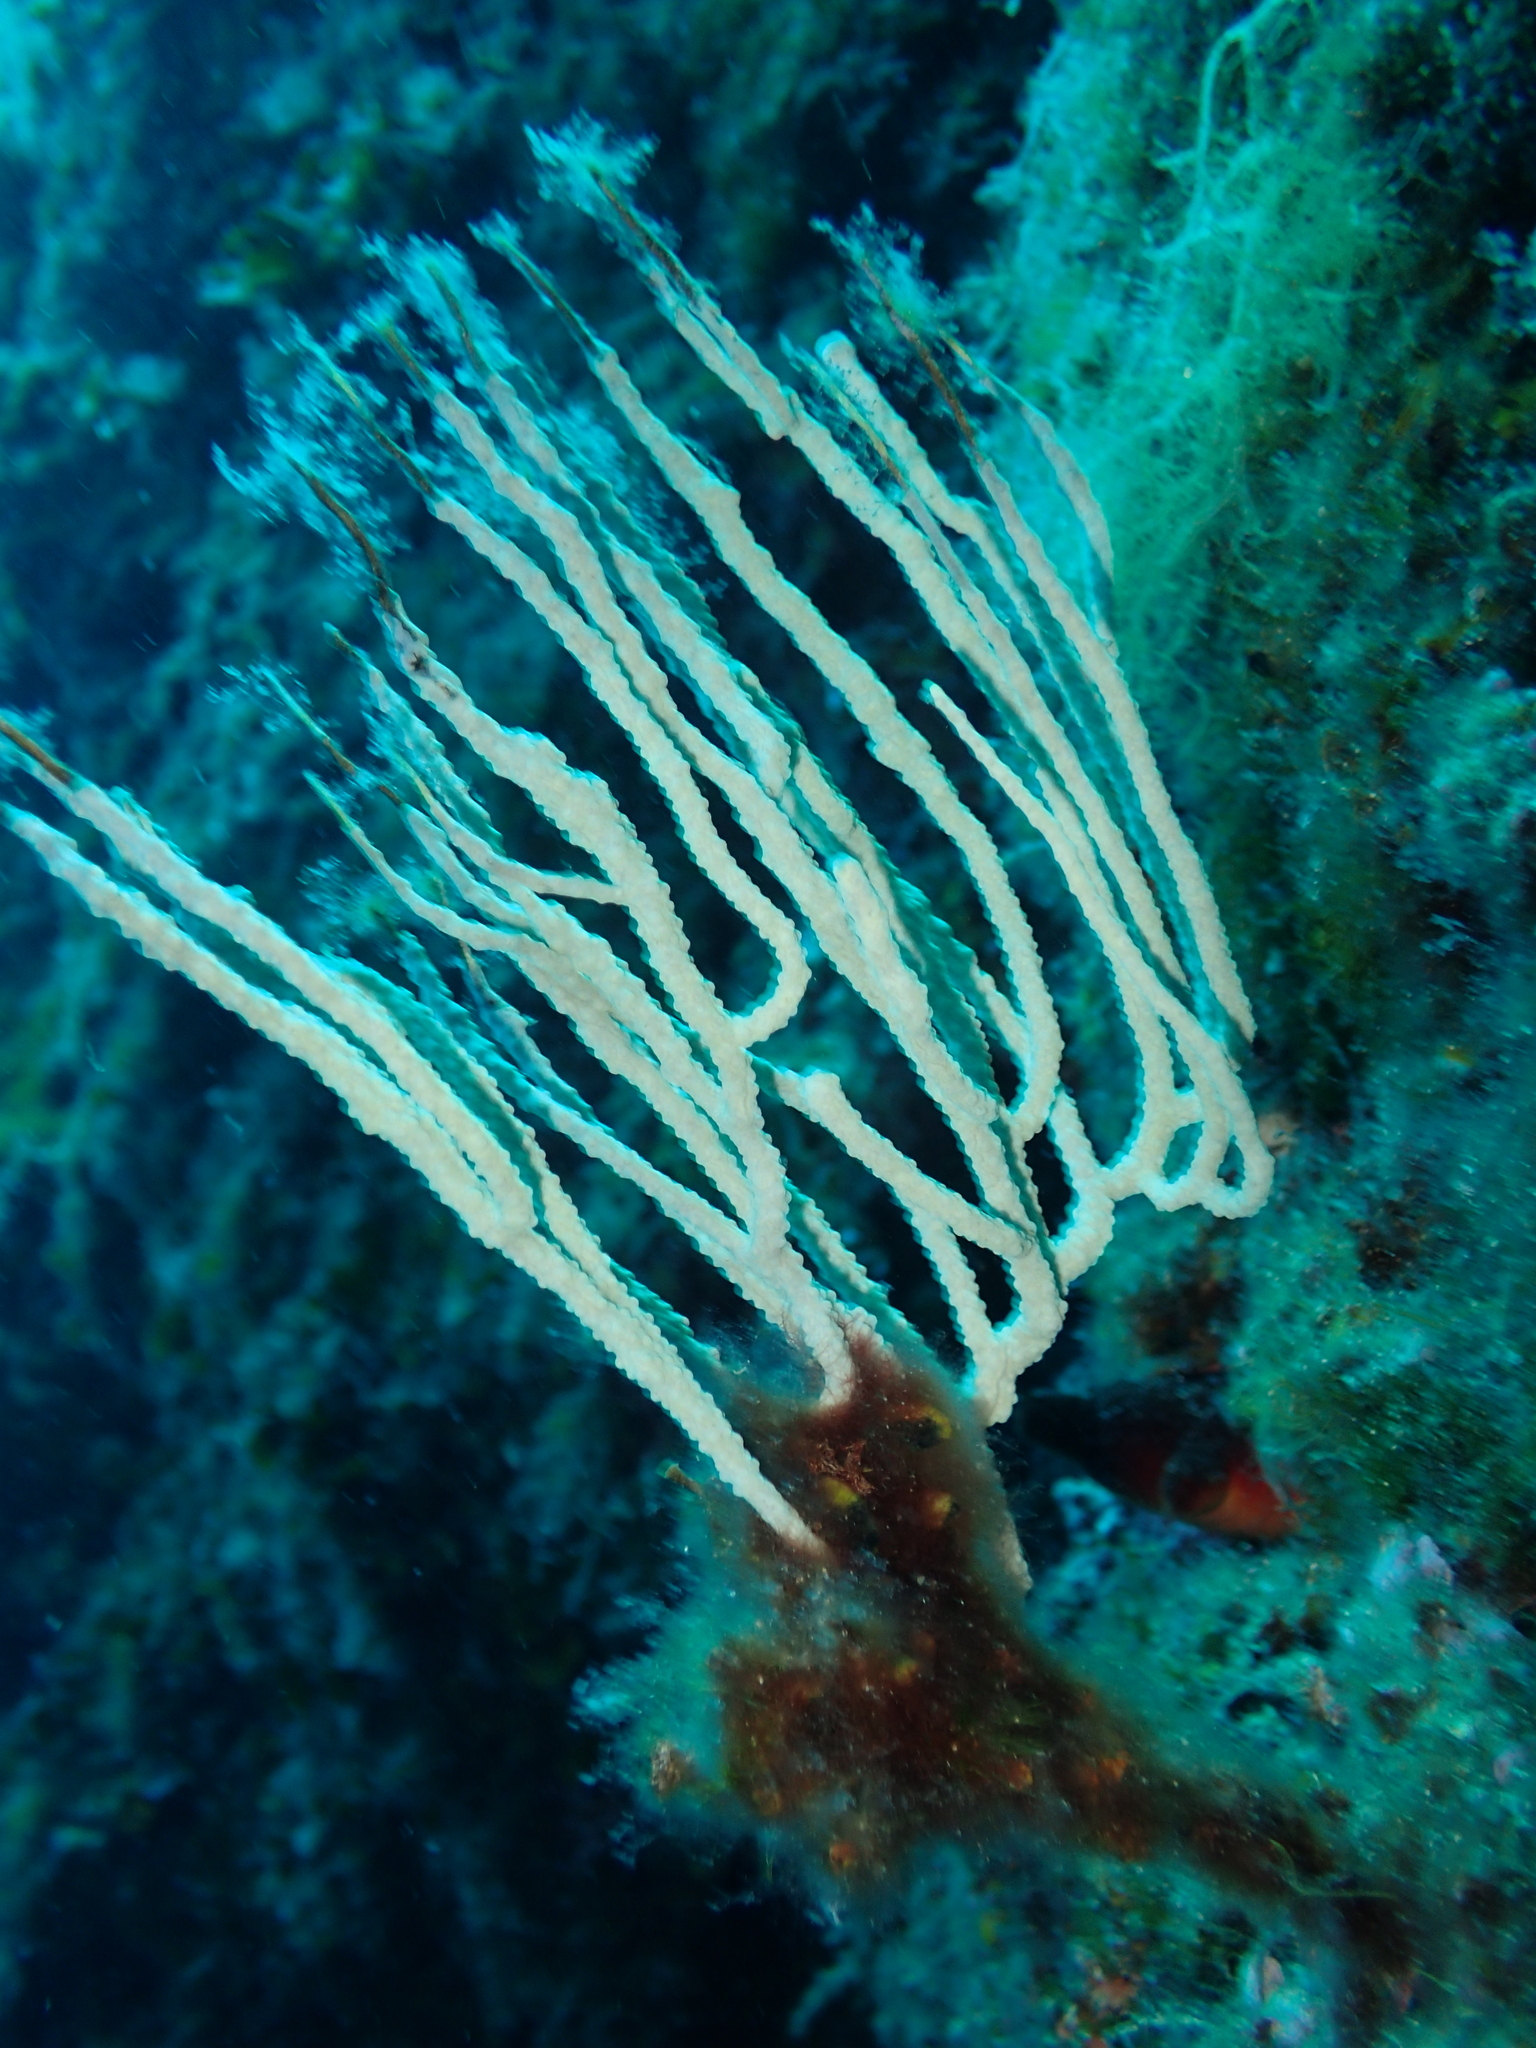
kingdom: Animalia
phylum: Cnidaria
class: Anthozoa
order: Malacalcyonacea
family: Eunicellidae
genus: Eunicella
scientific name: Eunicella singularis
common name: White horny coral
